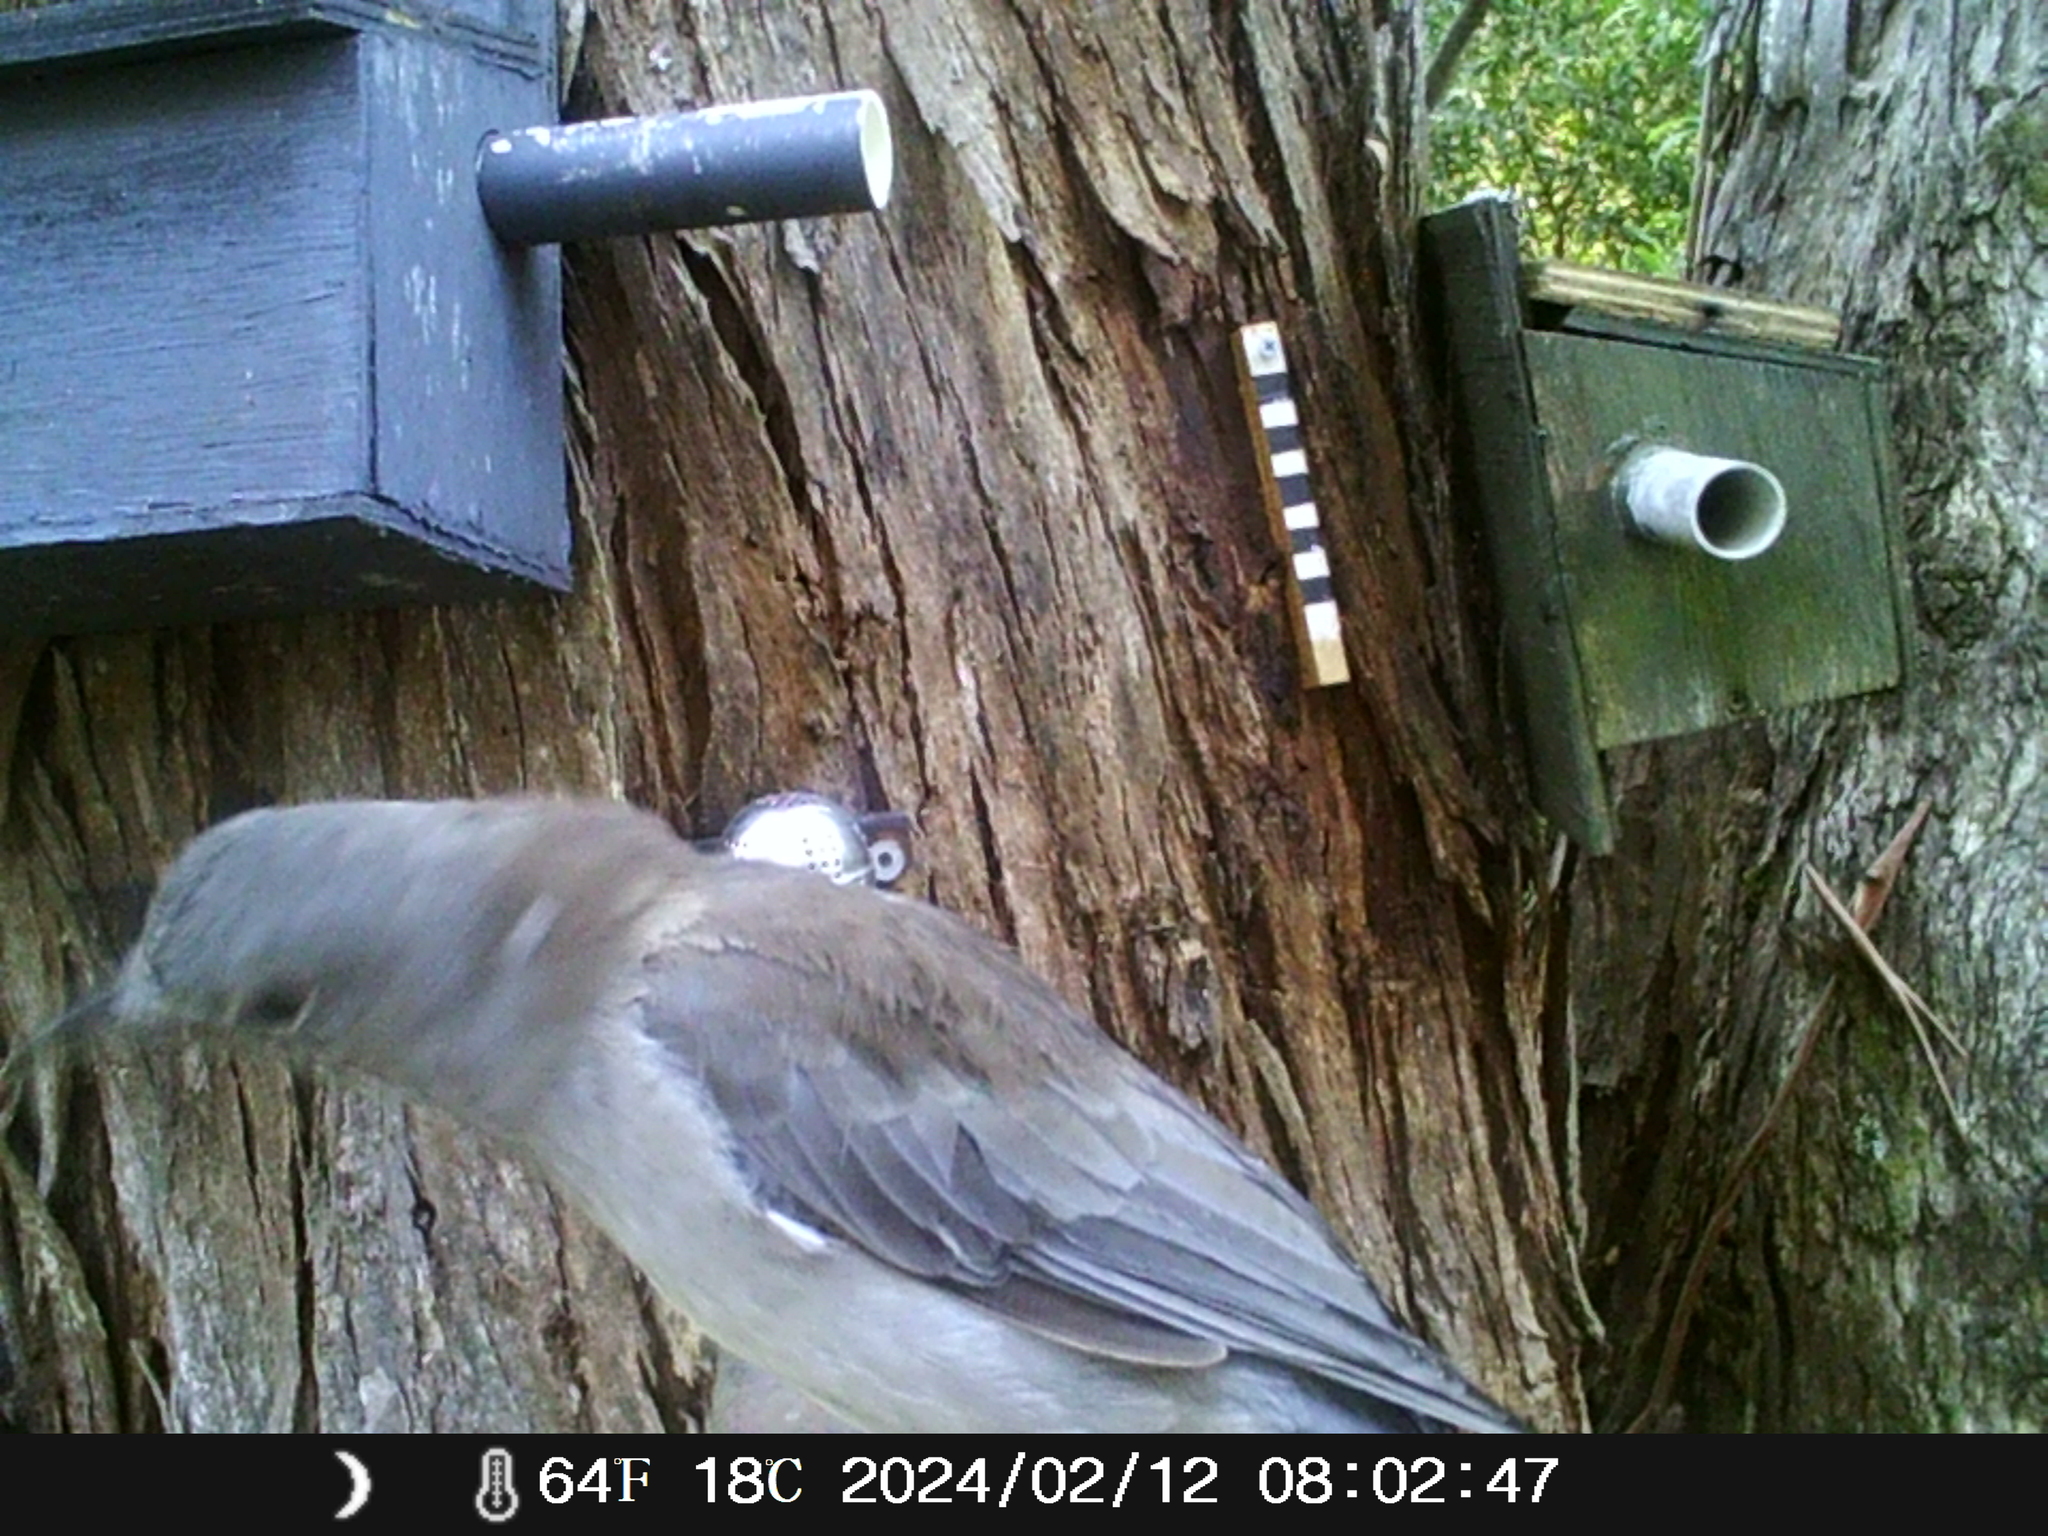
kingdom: Animalia
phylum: Chordata
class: Aves
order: Passeriformes
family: Pachycephalidae
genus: Colluricincla
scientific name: Colluricincla harmonica
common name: Grey shrikethrush
